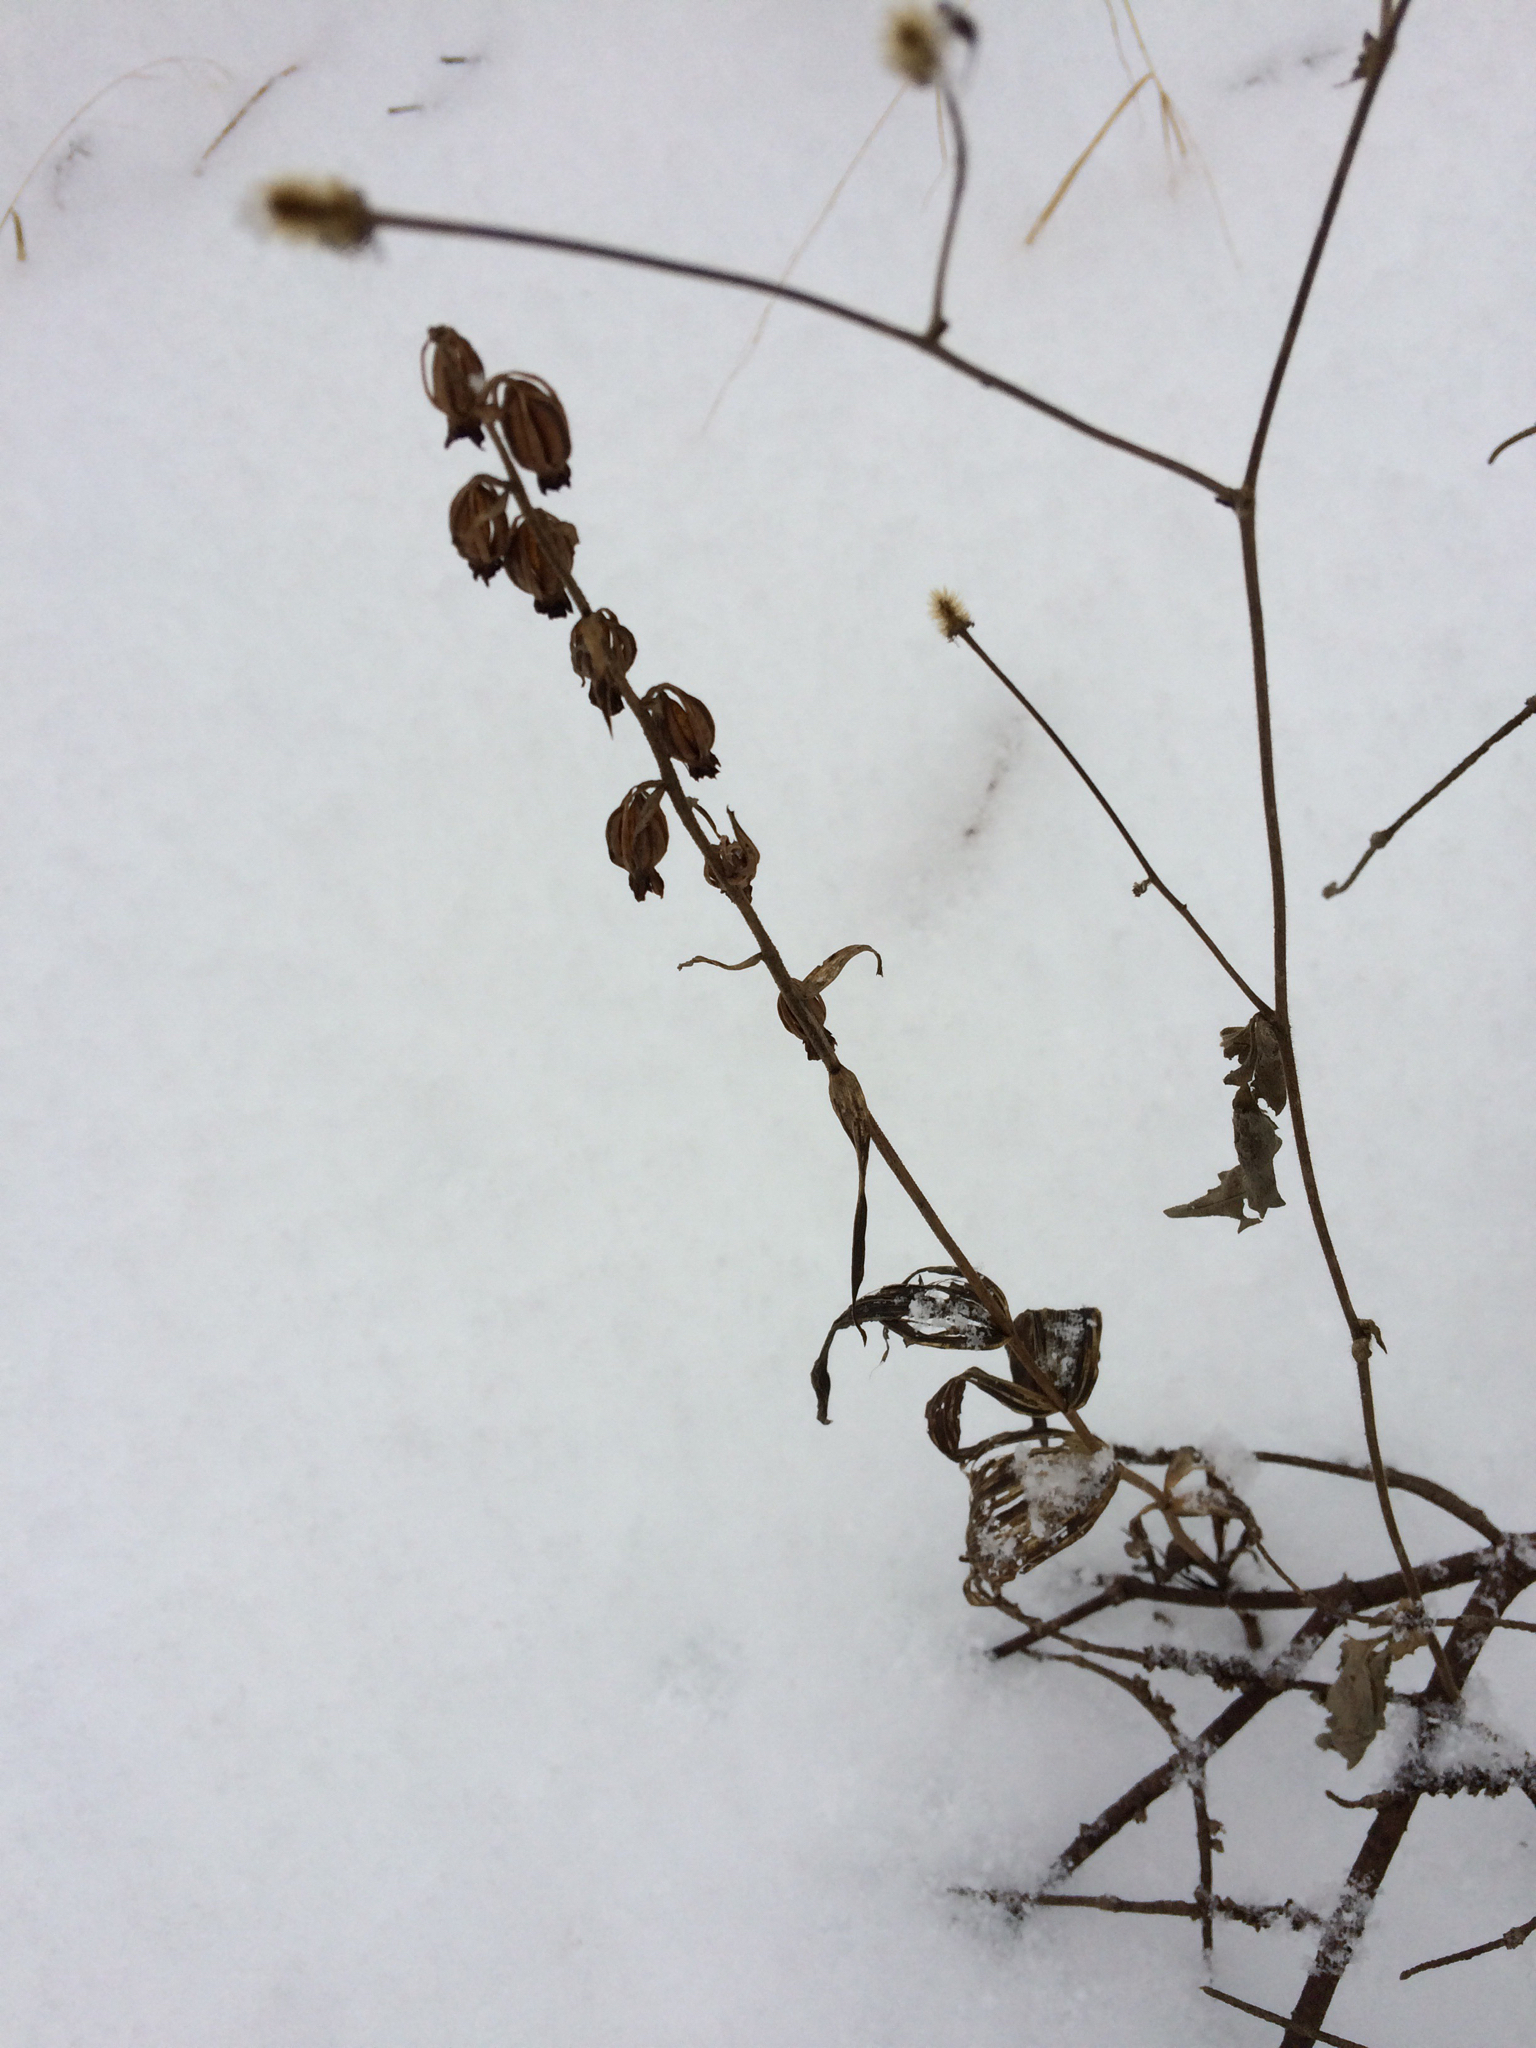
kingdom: Plantae
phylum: Tracheophyta
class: Liliopsida
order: Asparagales
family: Orchidaceae
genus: Epipactis
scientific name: Epipactis helleborine
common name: Broad-leaved helleborine
